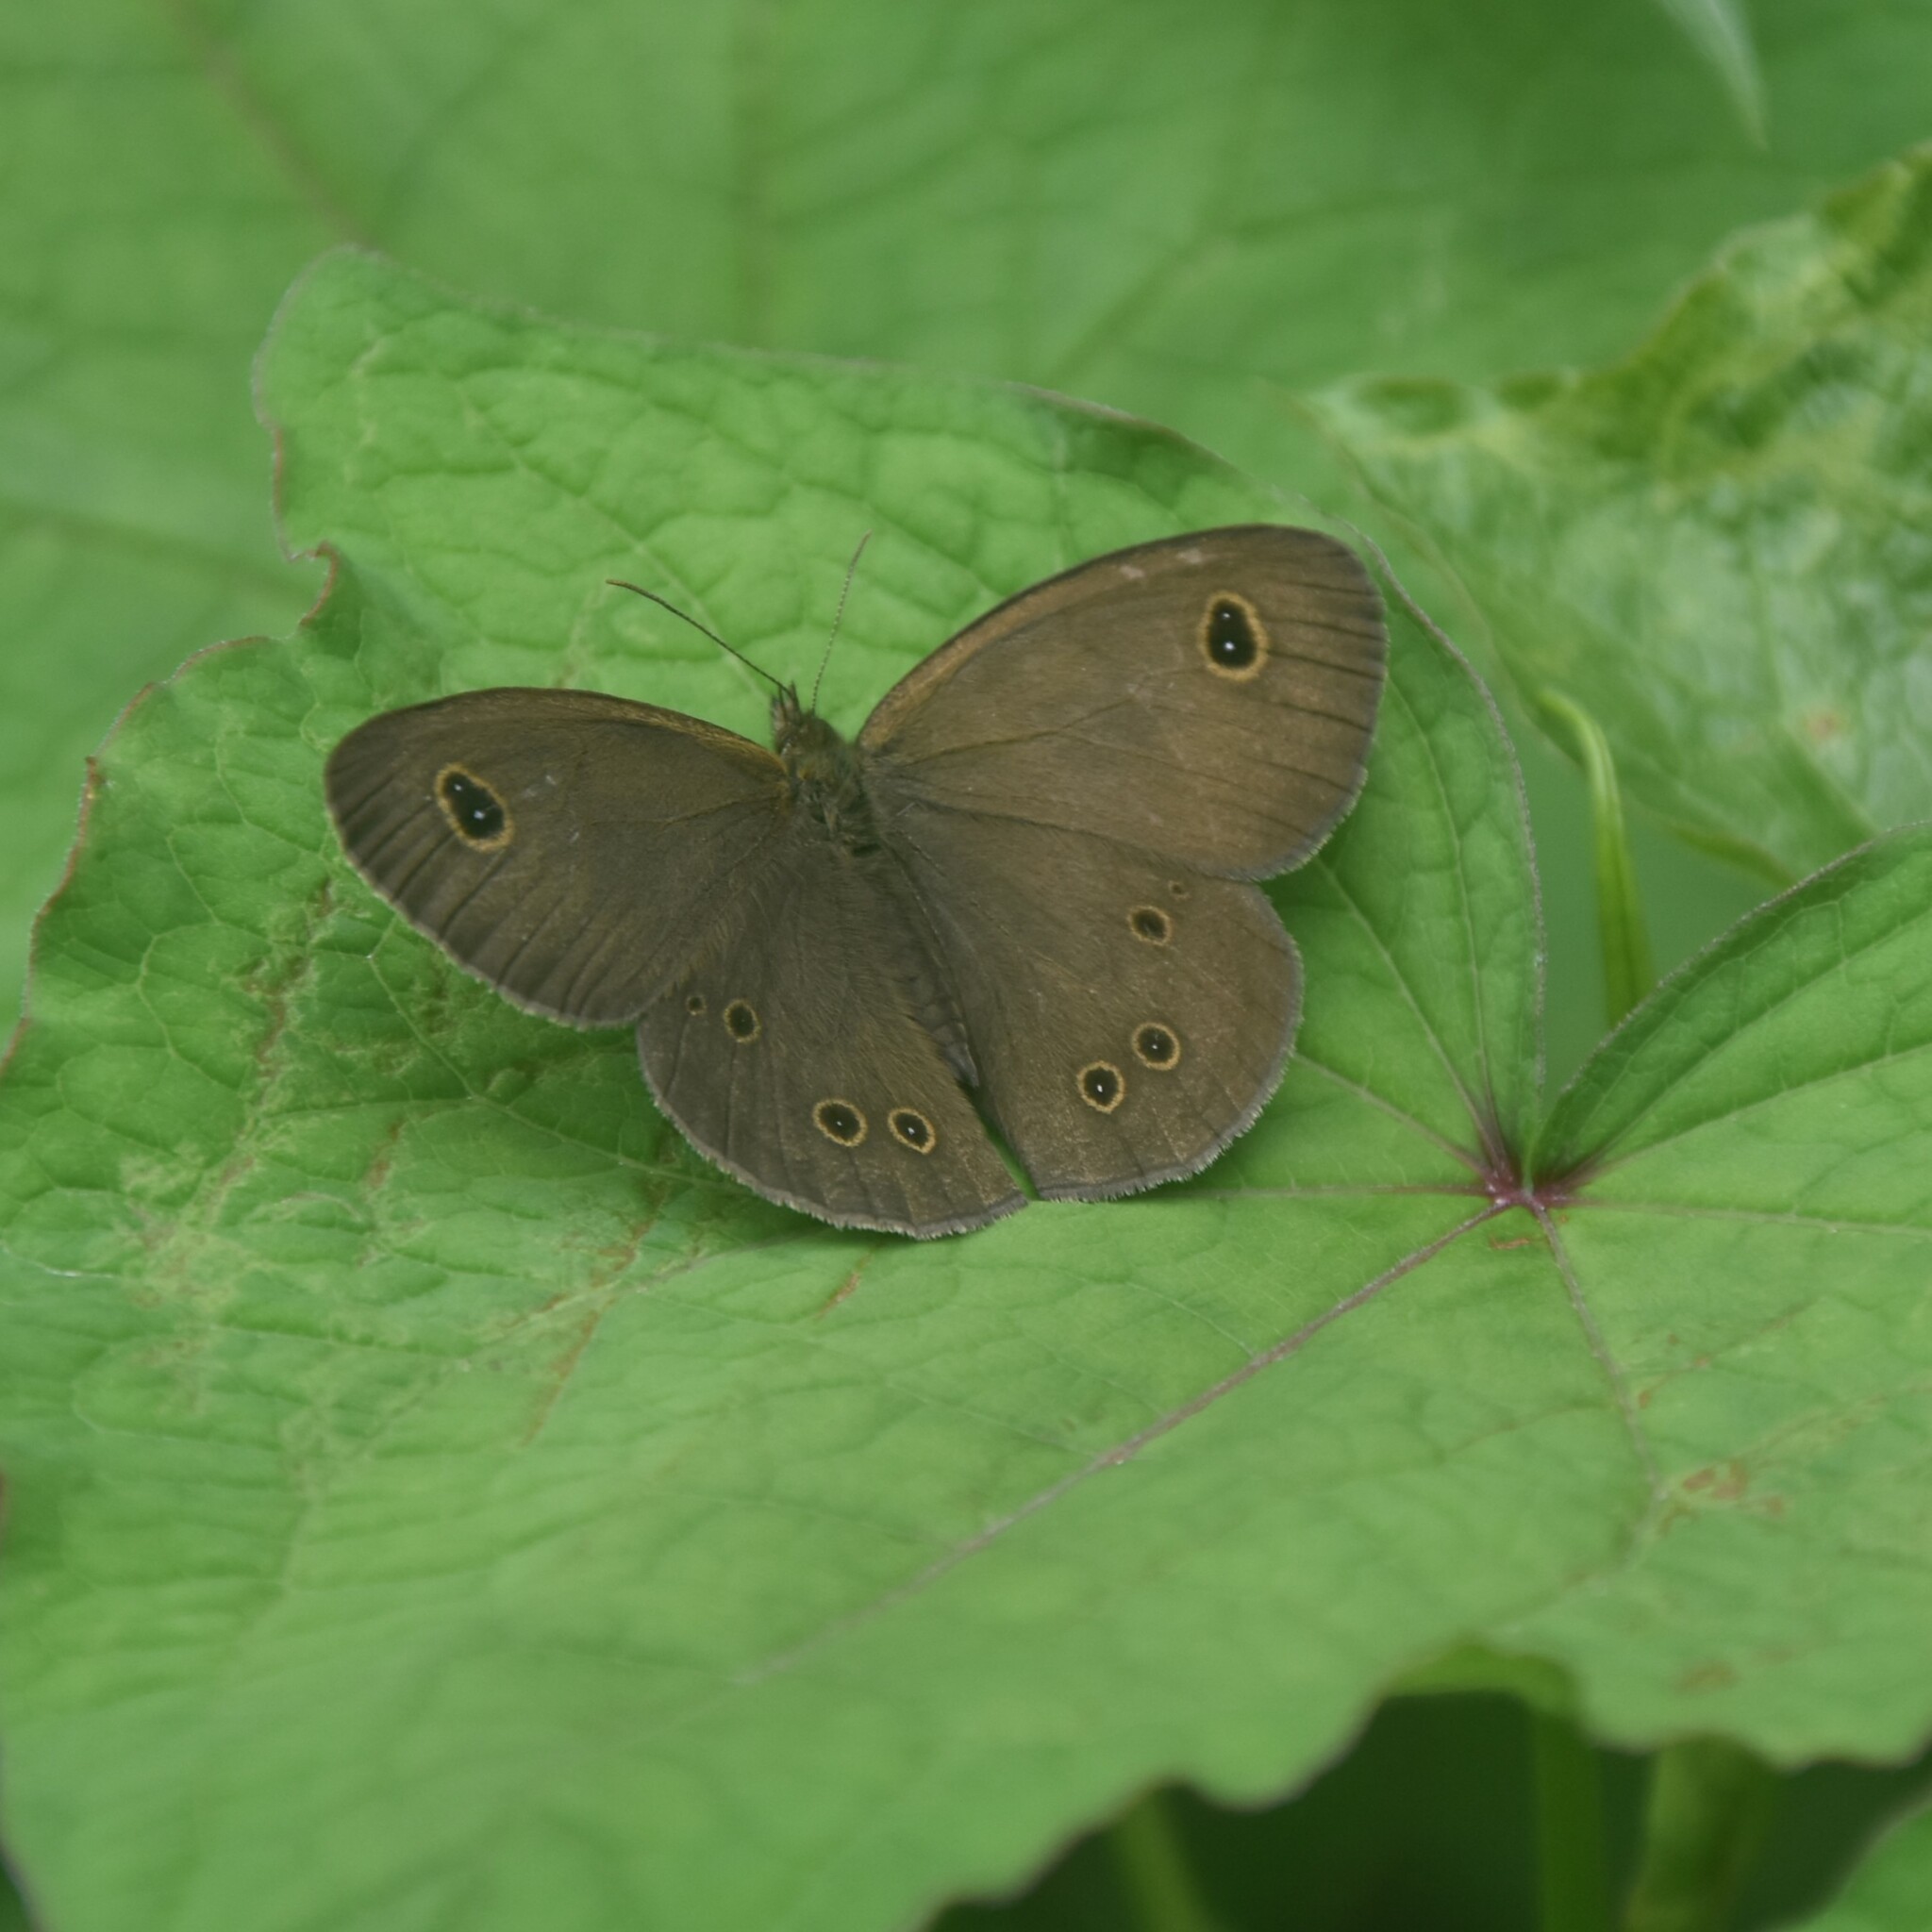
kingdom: Animalia
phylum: Arthropoda
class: Insecta
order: Lepidoptera
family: Nymphalidae
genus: Ypthima
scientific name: Ypthima nikaea
